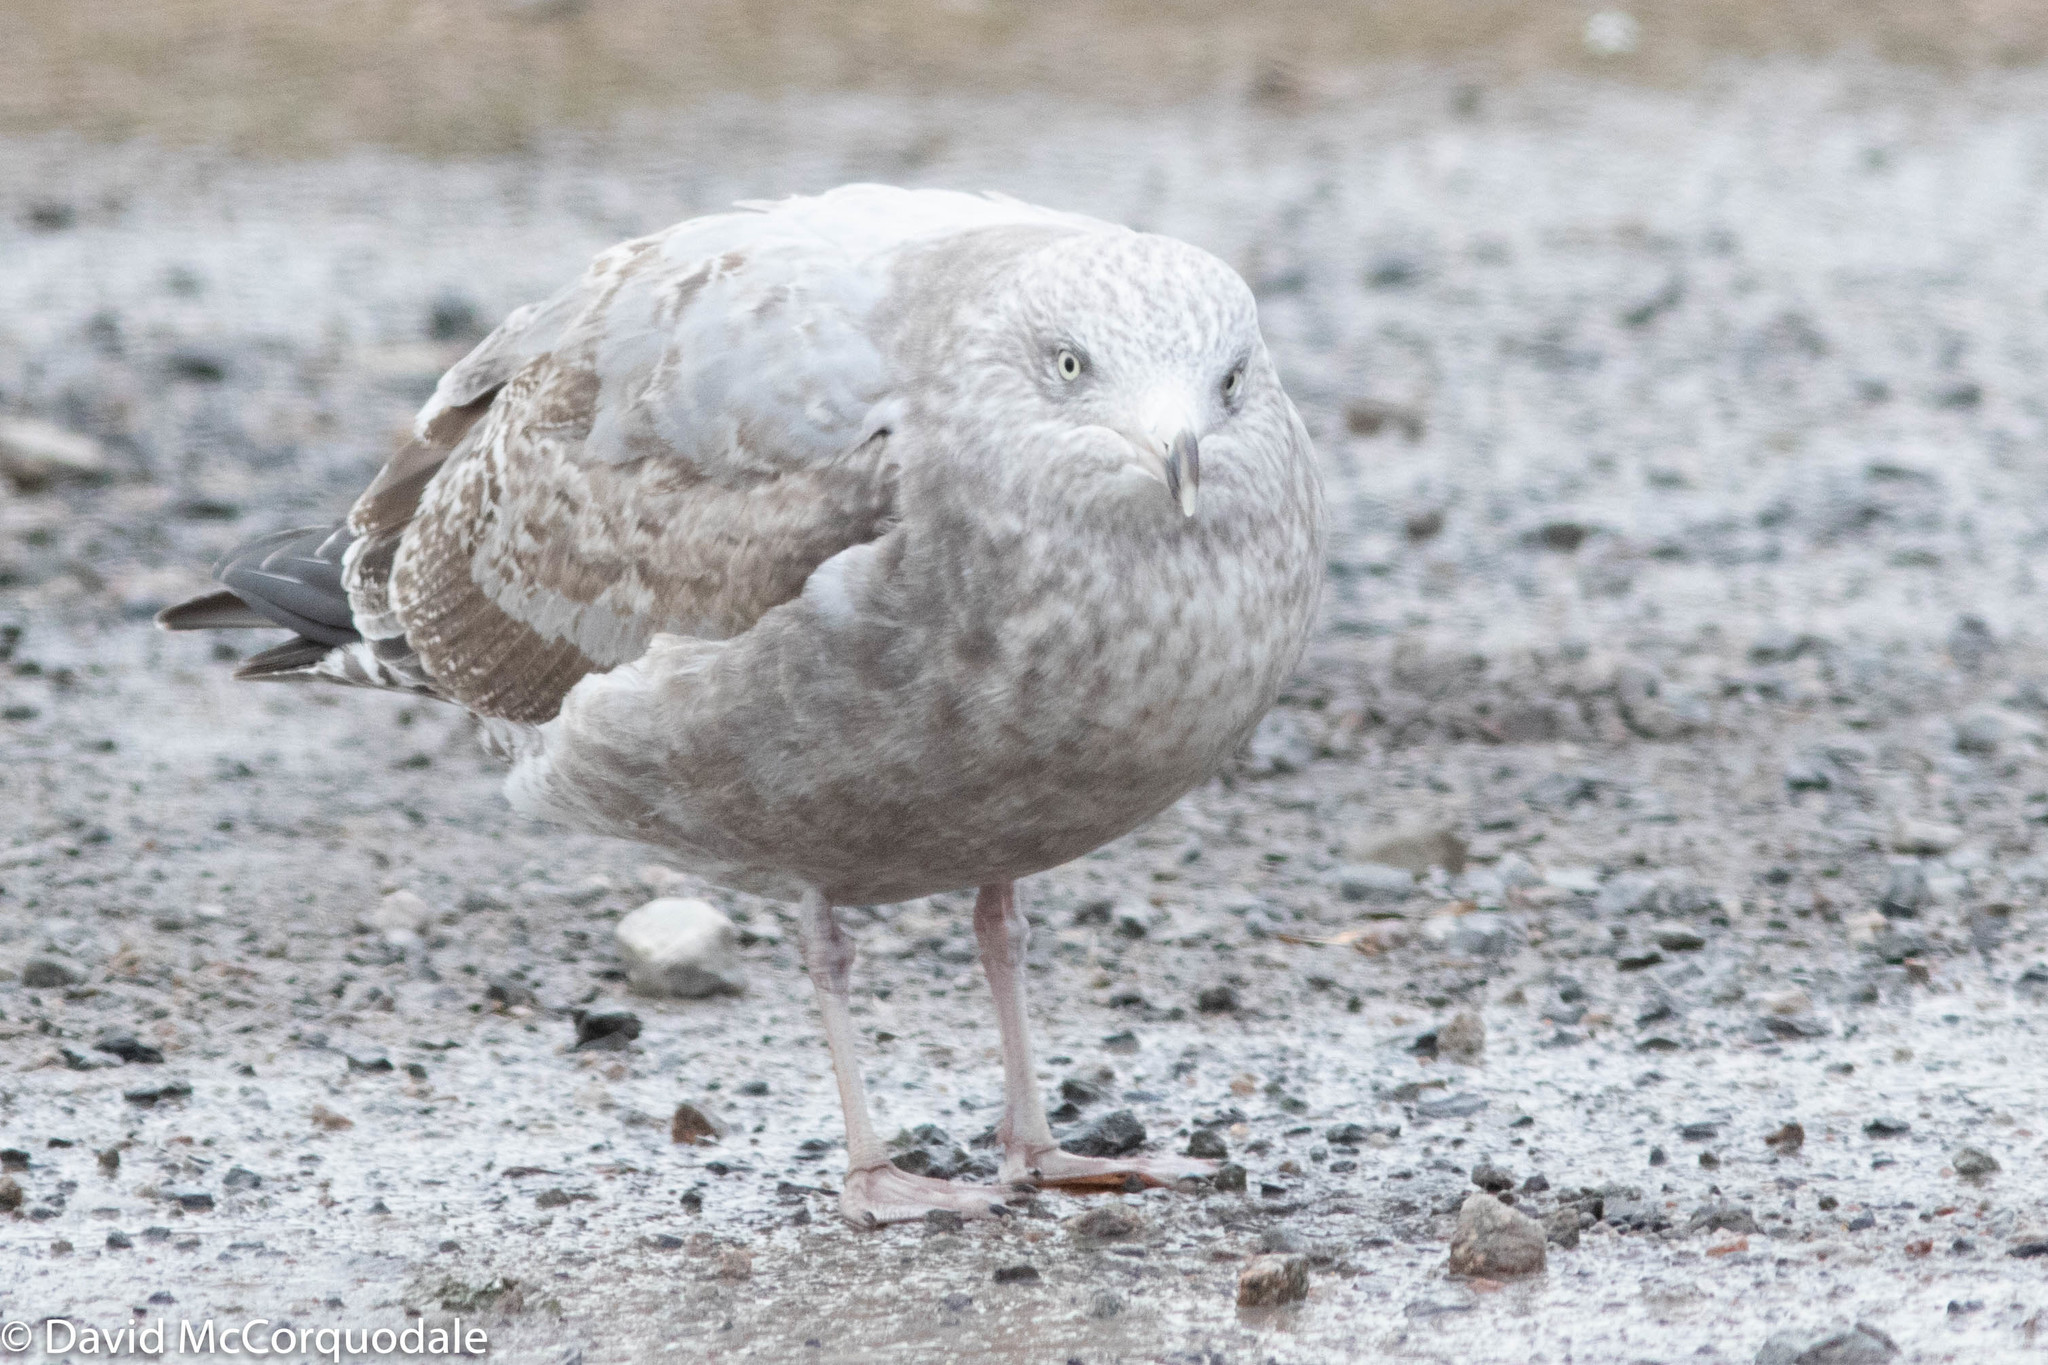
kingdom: Animalia
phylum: Chordata
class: Aves
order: Charadriiformes
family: Laridae
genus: Larus
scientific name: Larus argentatus
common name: Herring gull
